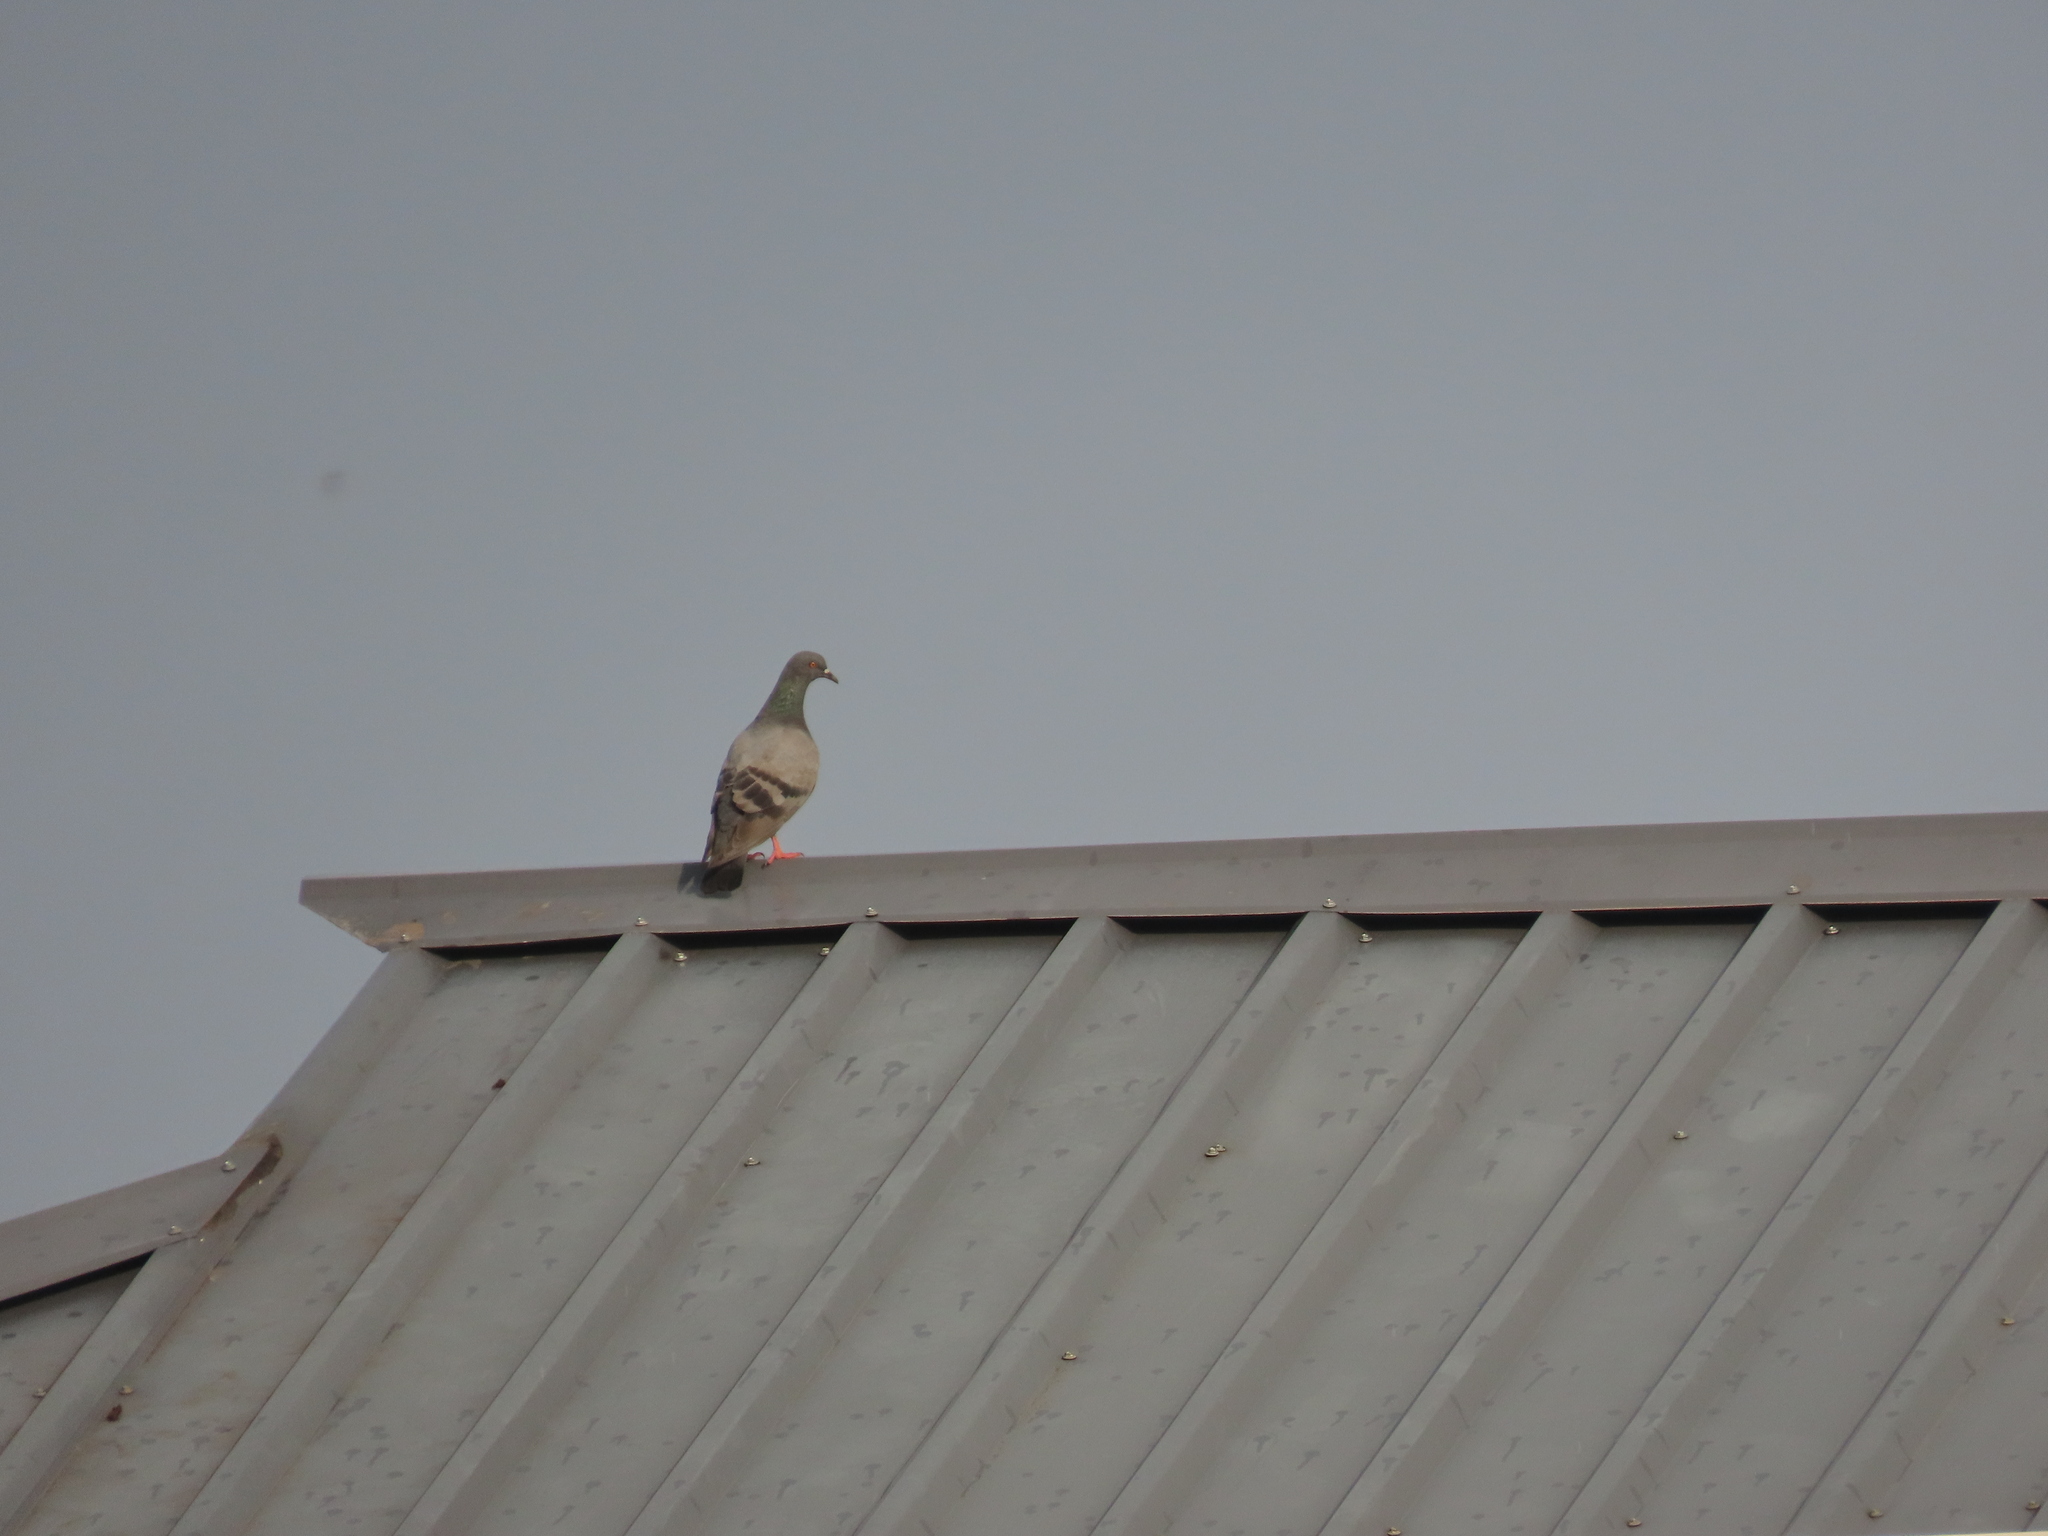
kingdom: Animalia
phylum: Chordata
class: Aves
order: Columbiformes
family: Columbidae
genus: Columba
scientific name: Columba livia
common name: Rock pigeon
